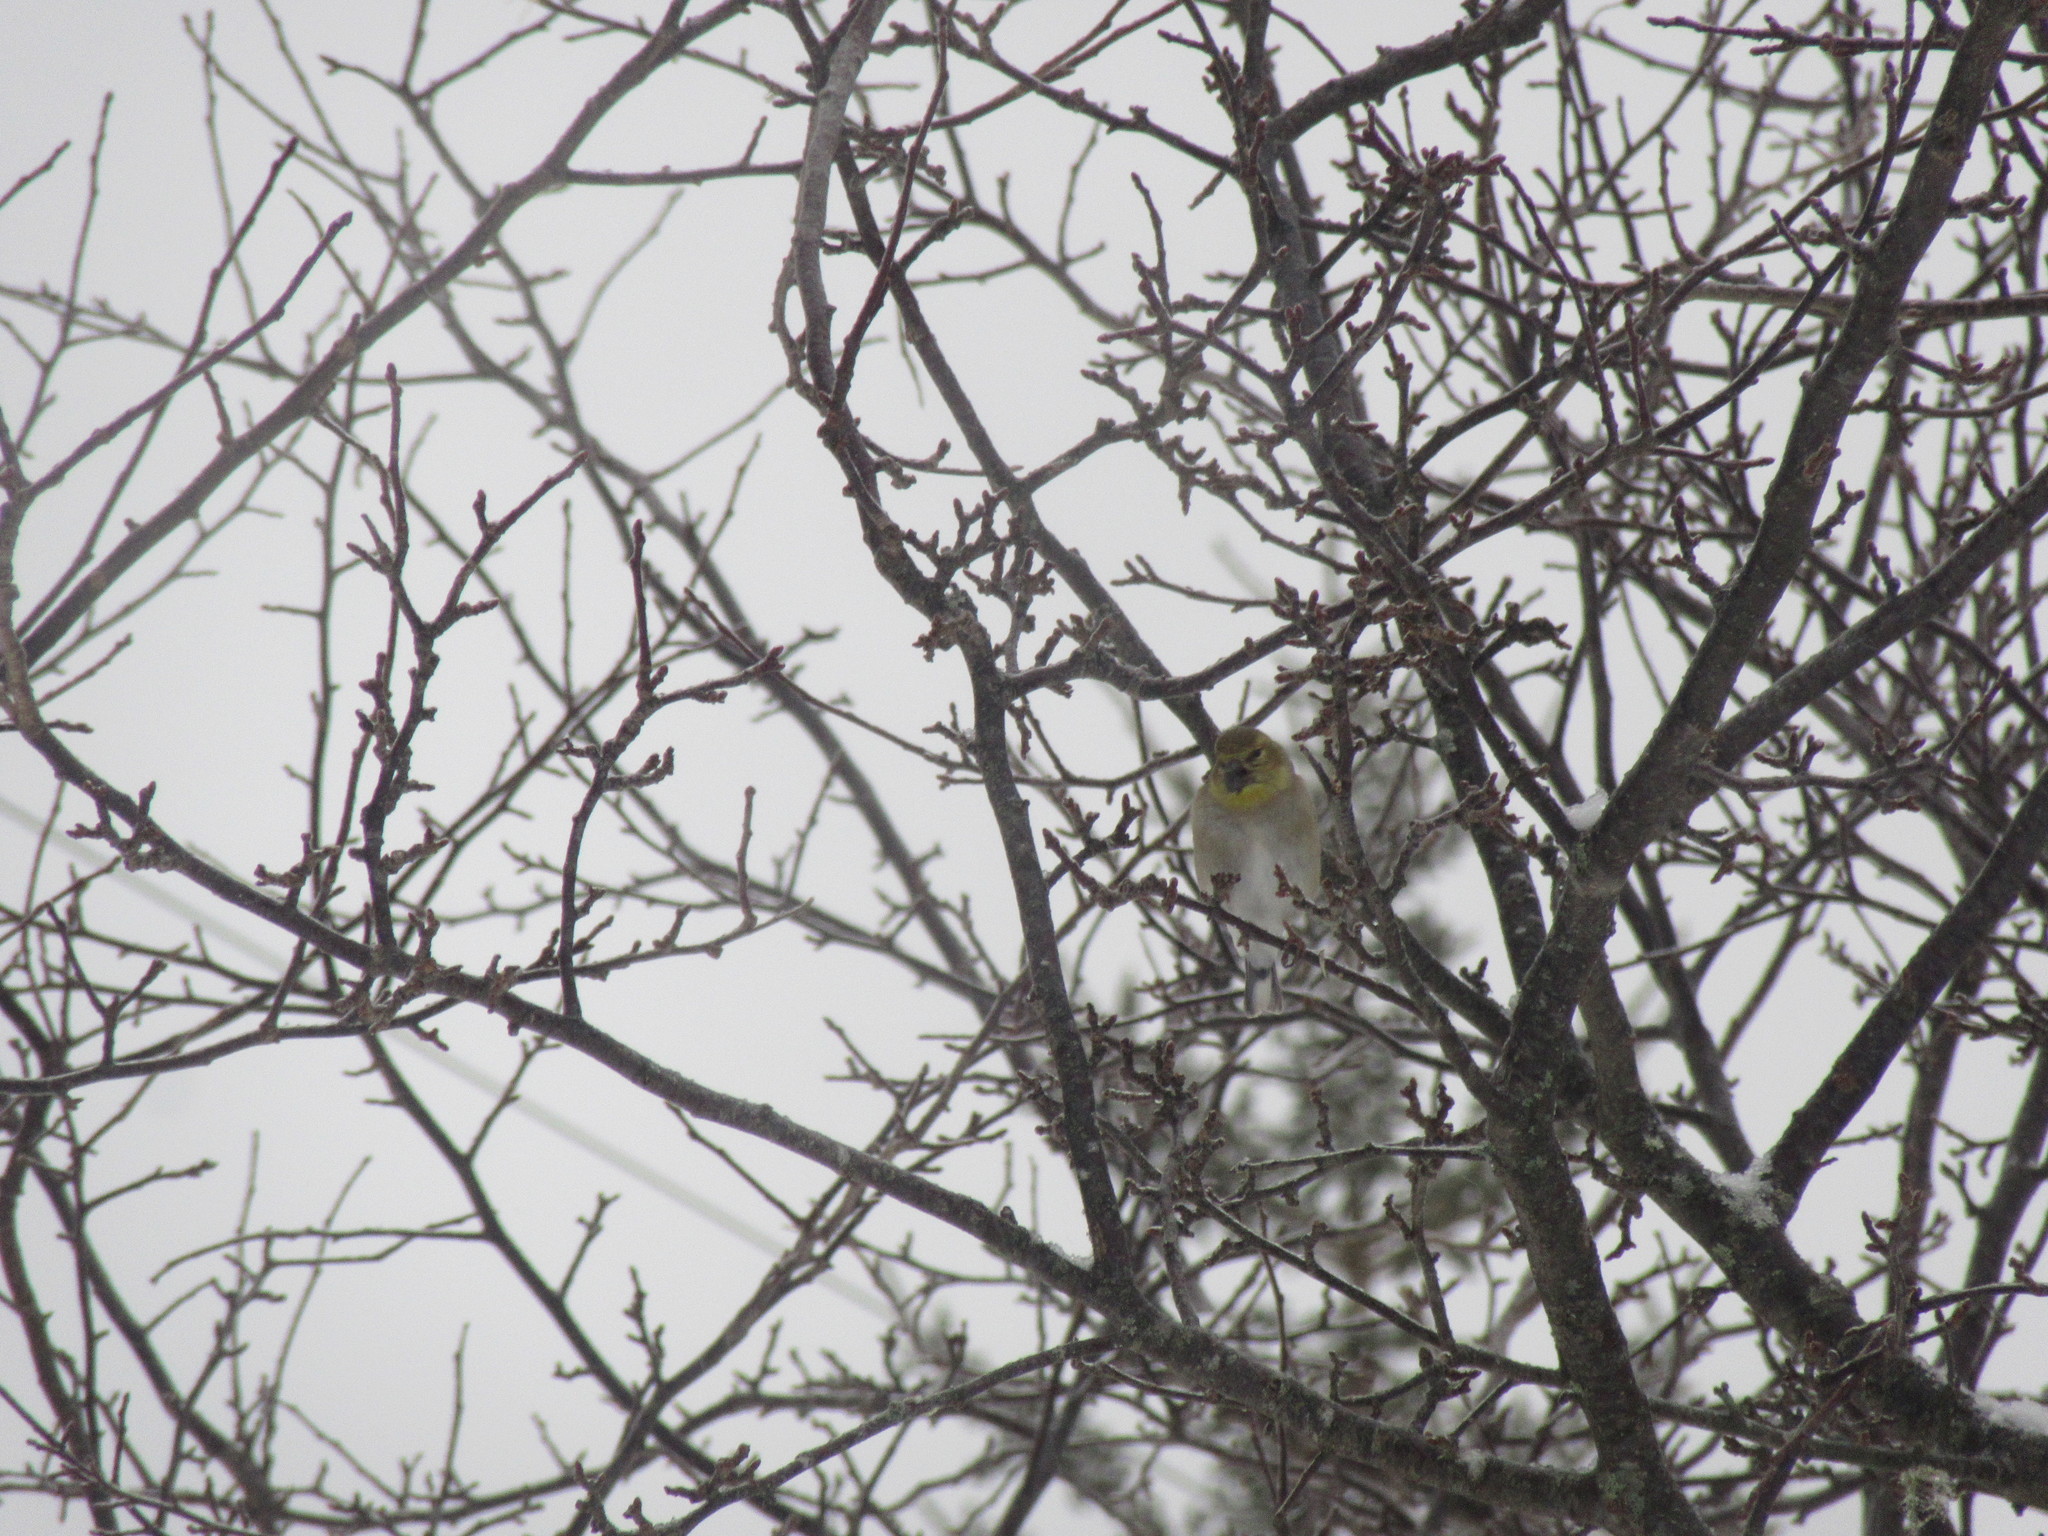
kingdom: Animalia
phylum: Chordata
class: Aves
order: Passeriformes
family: Fringillidae
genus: Spinus
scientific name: Spinus tristis
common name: American goldfinch
